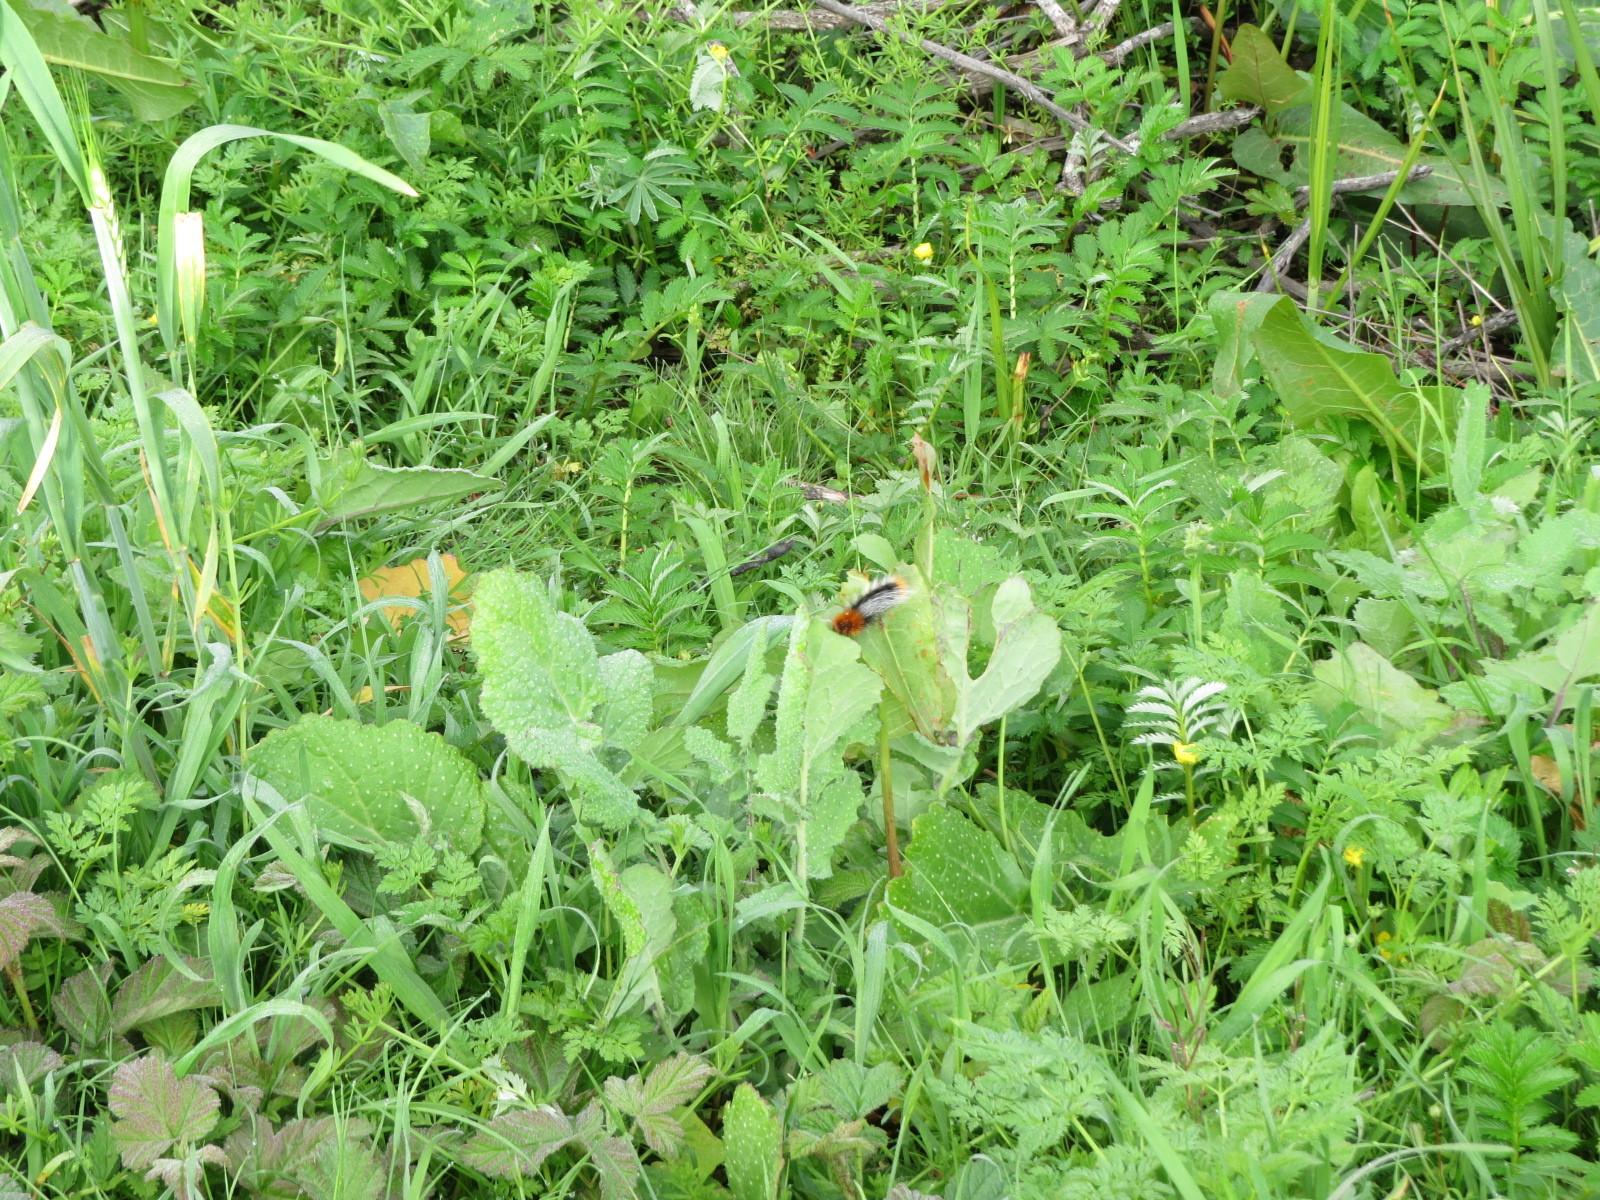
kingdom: Animalia
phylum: Arthropoda
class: Insecta
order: Lepidoptera
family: Erebidae
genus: Arctia
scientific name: Arctia tigrina
